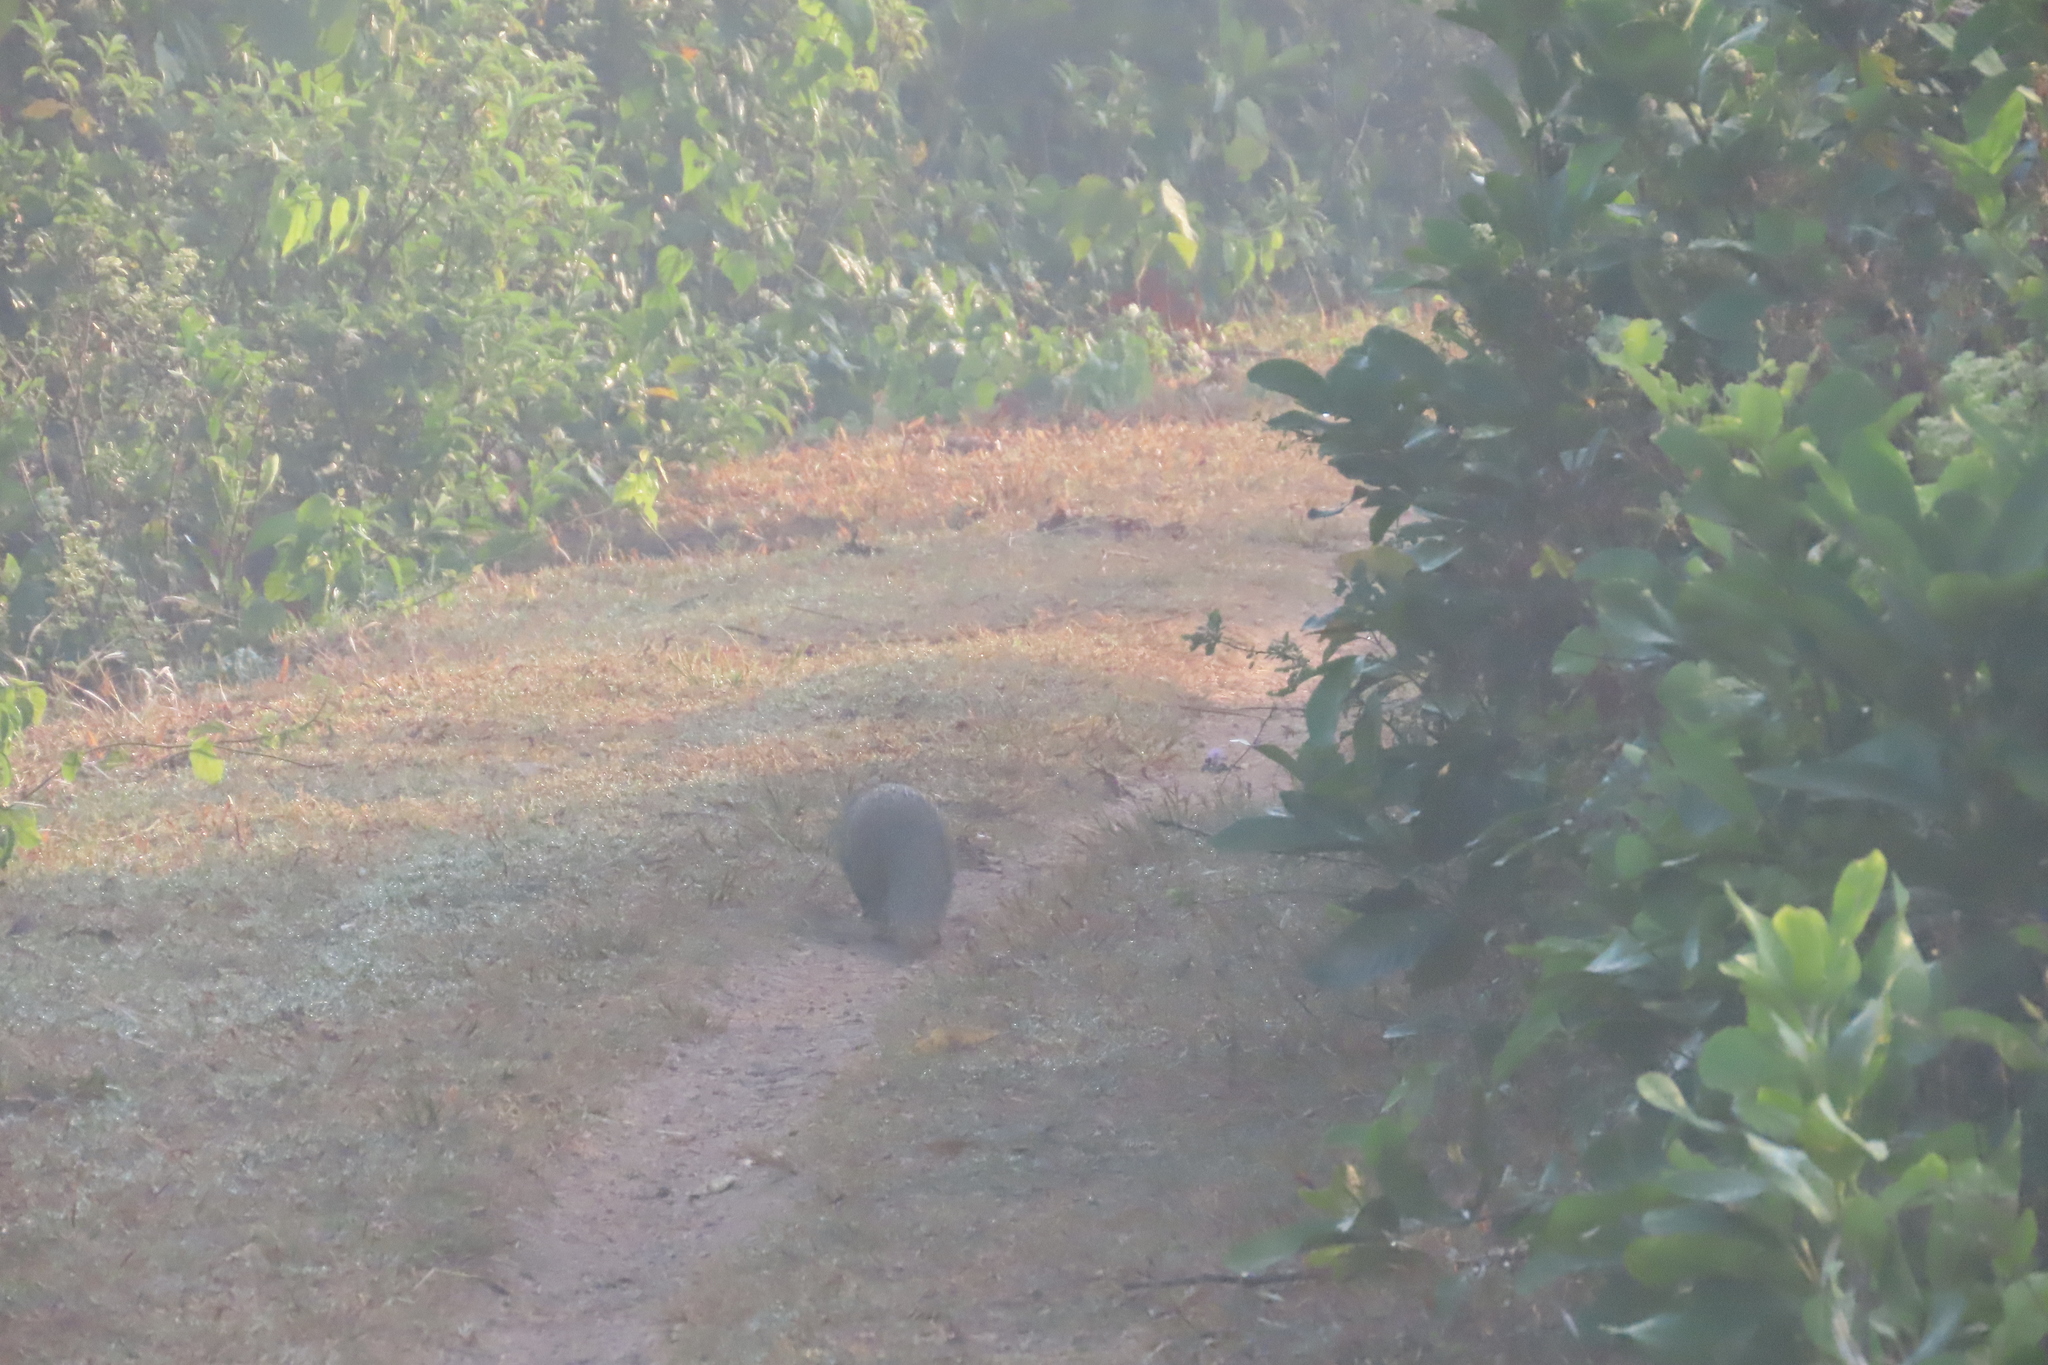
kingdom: Animalia
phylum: Chordata
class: Mammalia
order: Carnivora
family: Herpestidae
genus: Herpestes
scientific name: Herpestes edwardsi
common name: Indian gray mongoose
